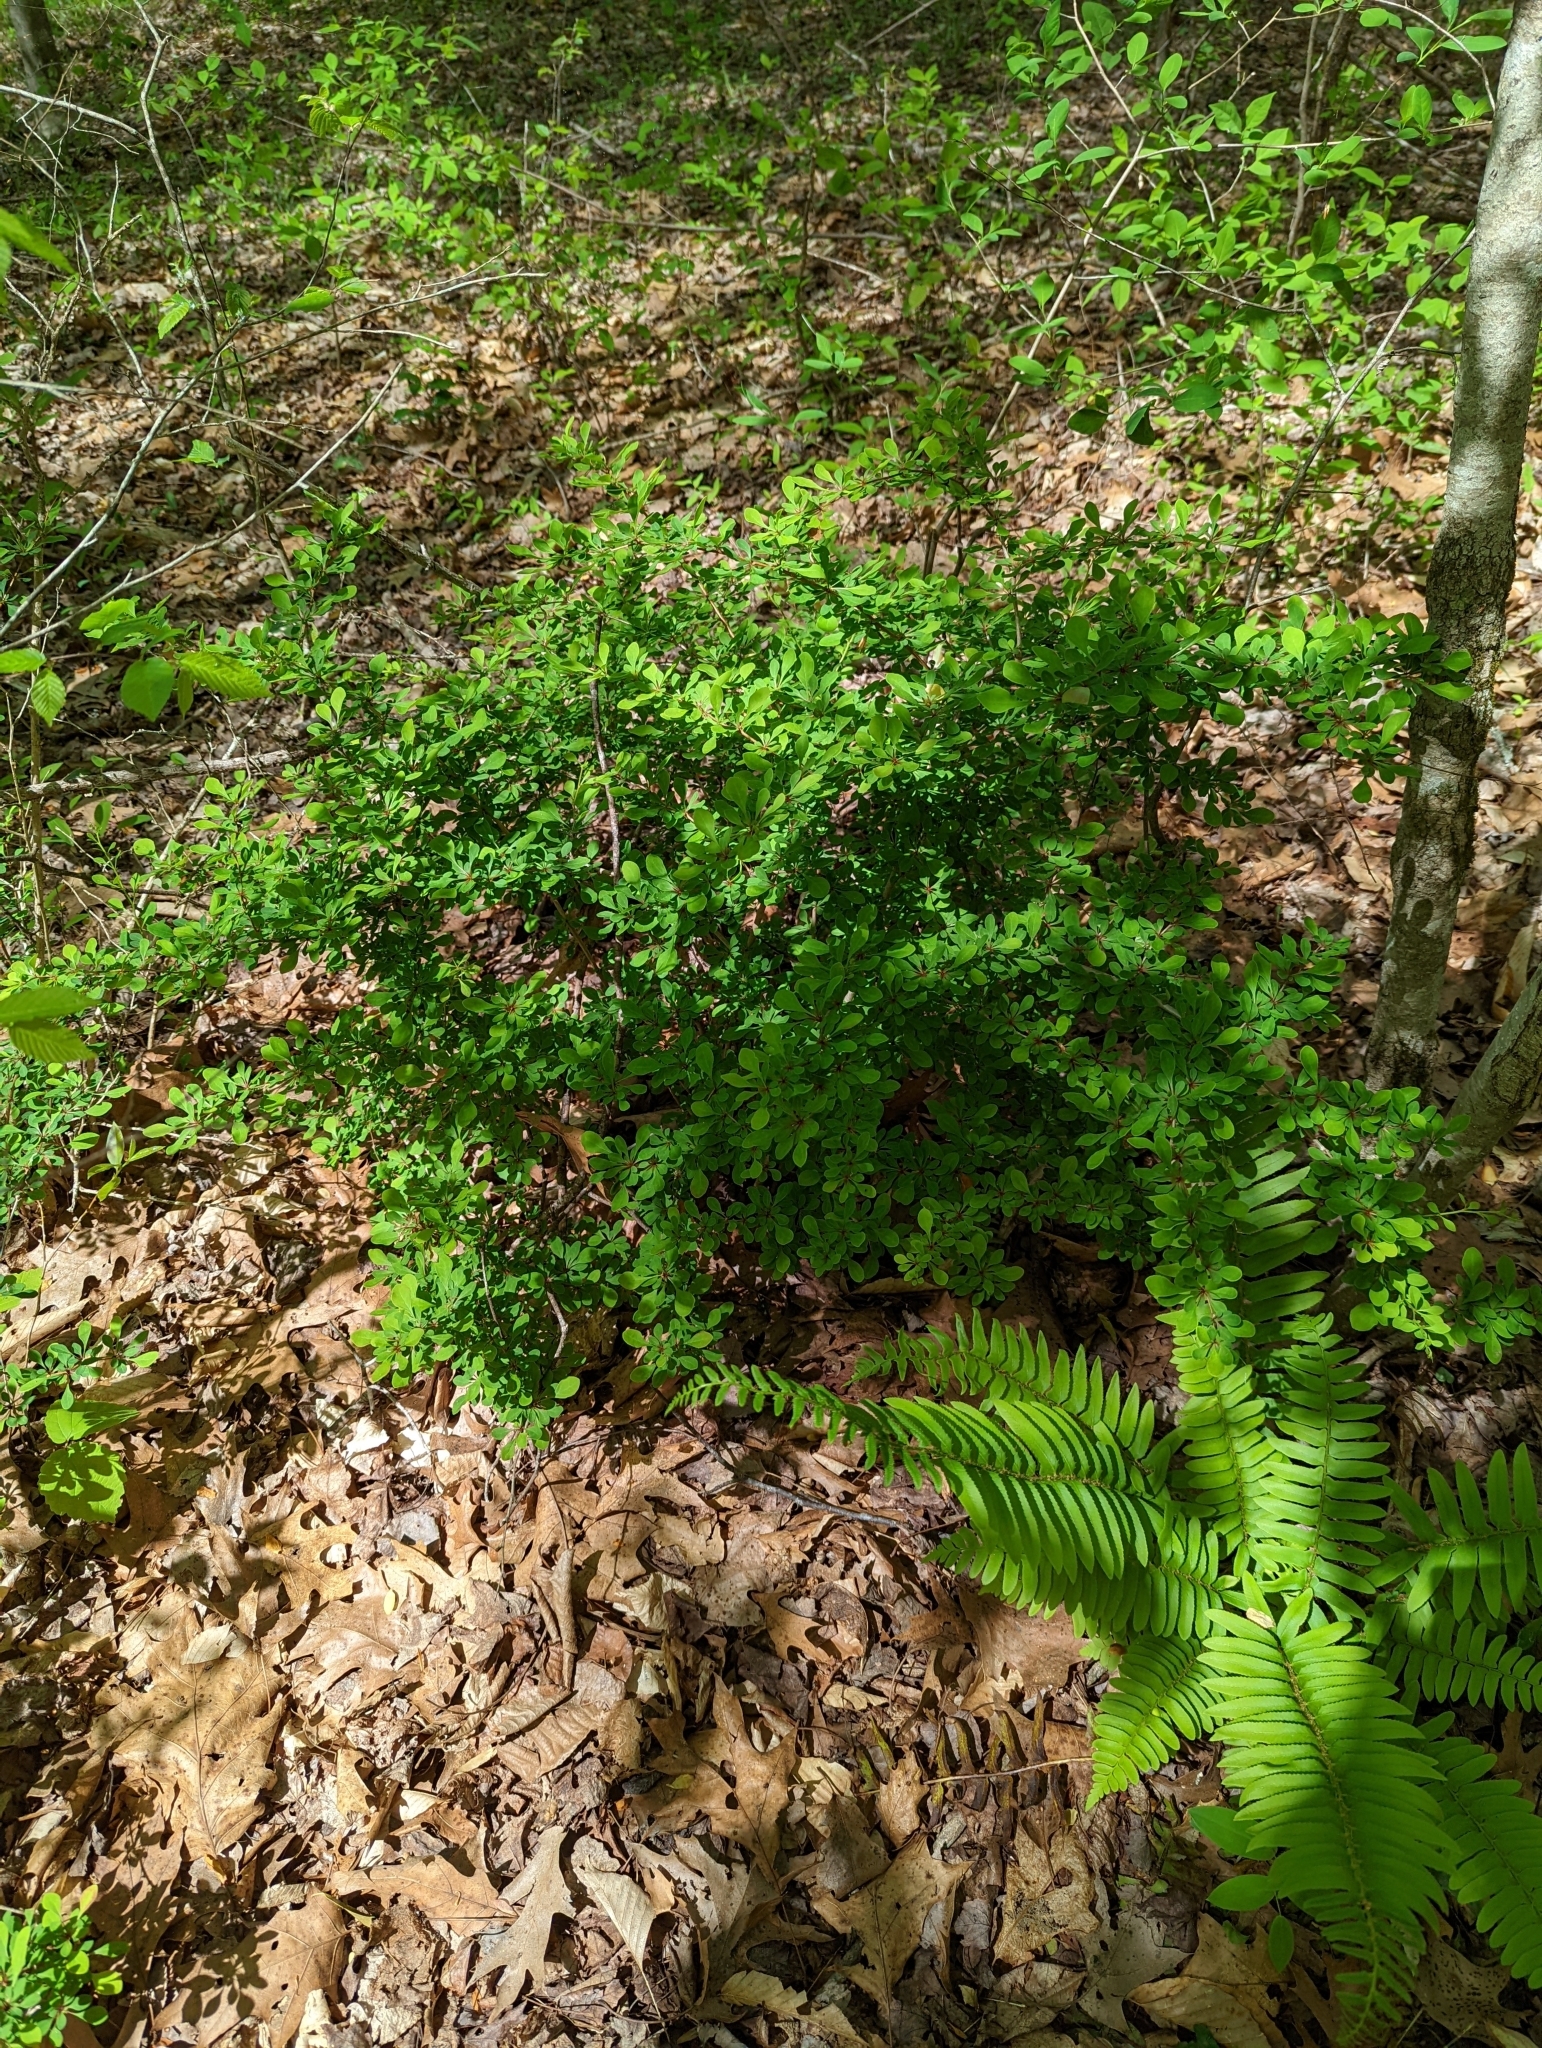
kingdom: Plantae
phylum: Tracheophyta
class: Magnoliopsida
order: Ranunculales
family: Berberidaceae
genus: Berberis
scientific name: Berberis thunbergii
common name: Japanese barberry
